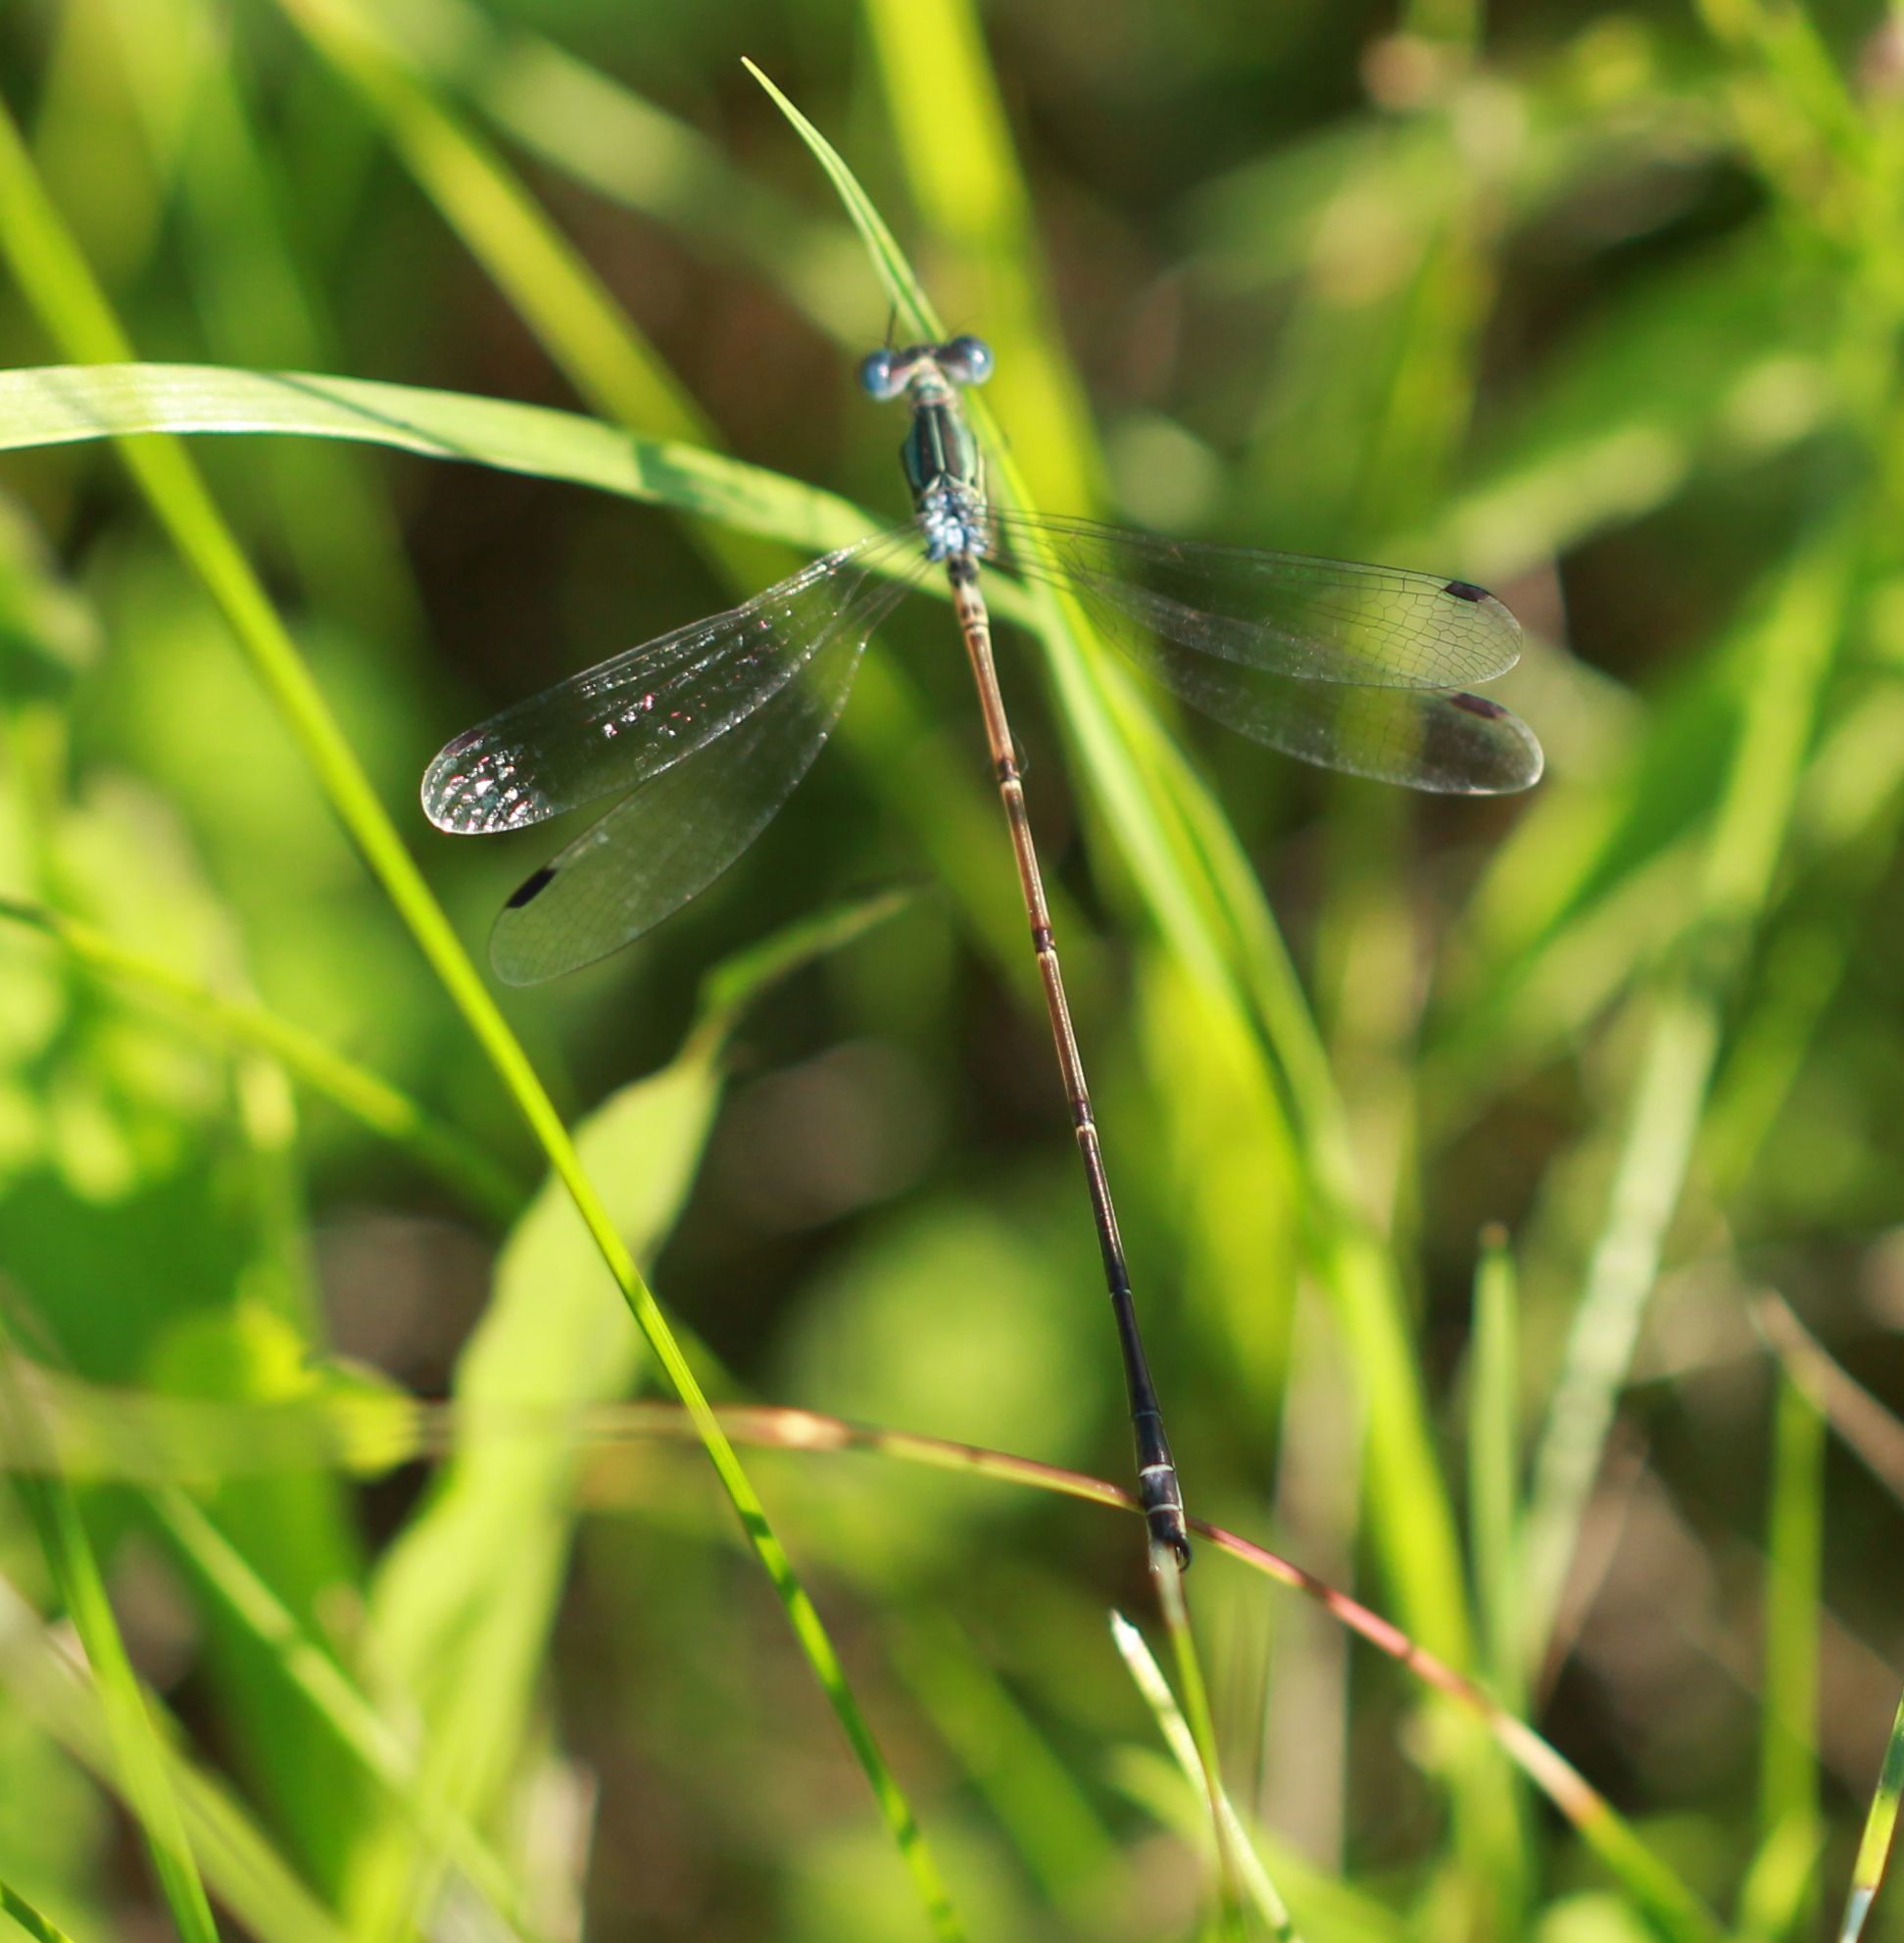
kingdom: Animalia
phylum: Arthropoda
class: Insecta
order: Odonata
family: Lestidae
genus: Lestes
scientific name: Lestes rectangularis
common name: Slender spreadwing
